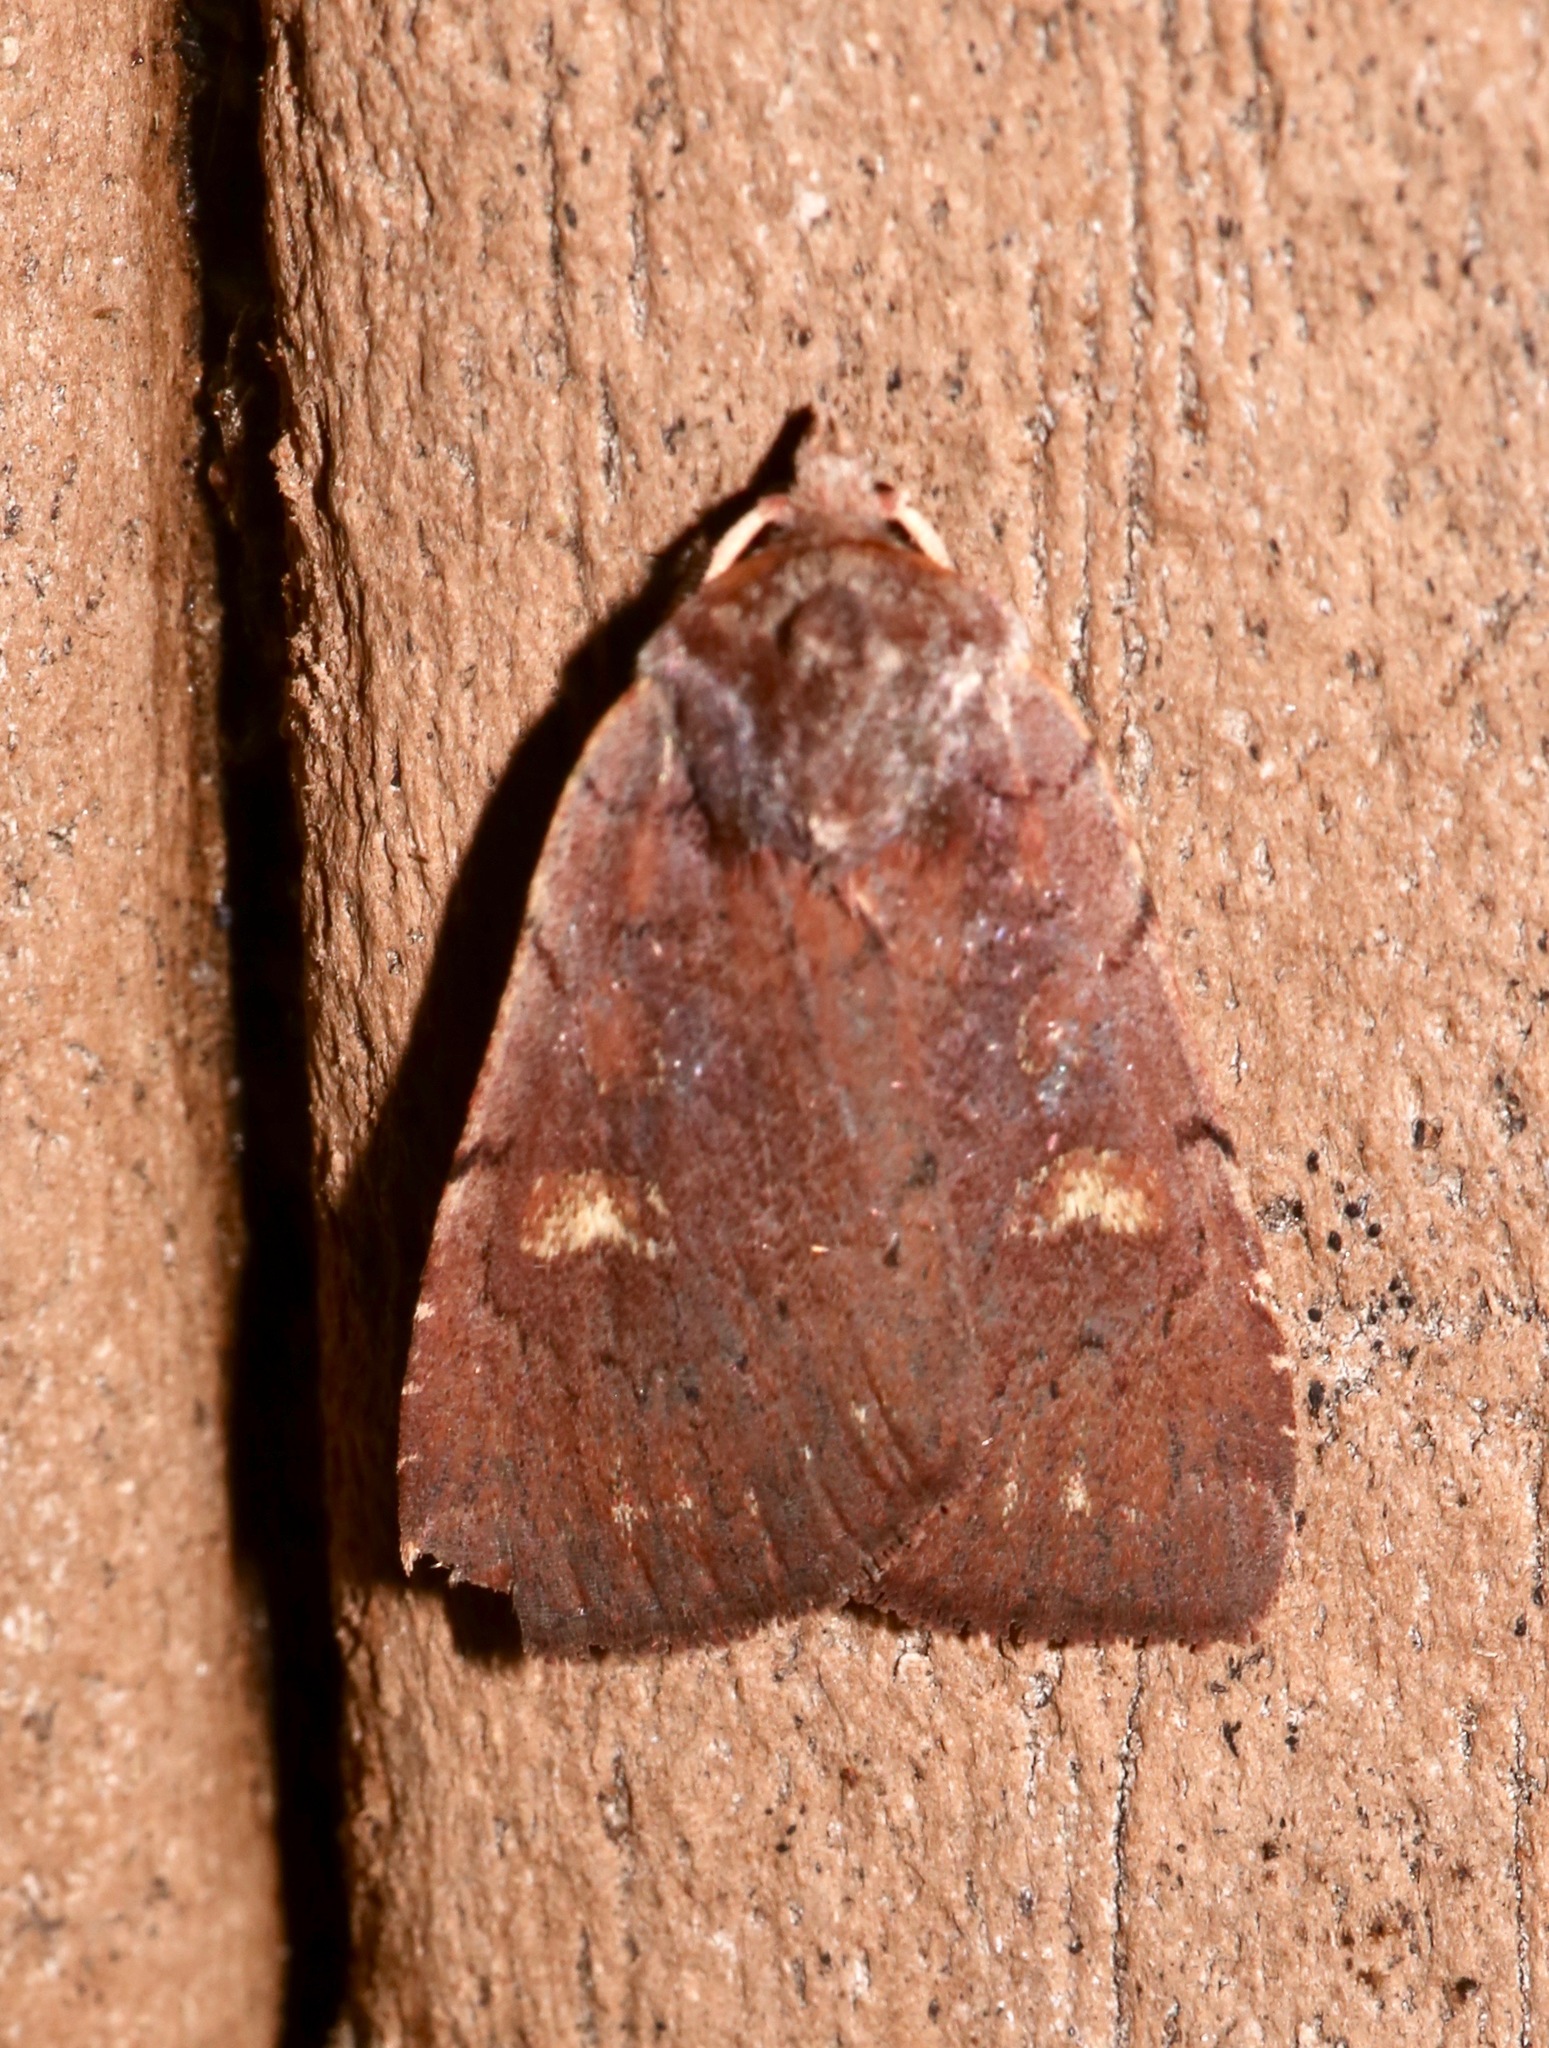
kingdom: Animalia
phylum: Arthropoda
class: Insecta
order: Lepidoptera
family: Noctuidae
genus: Xestia
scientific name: Xestia dilucida
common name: Dull reddish dart
